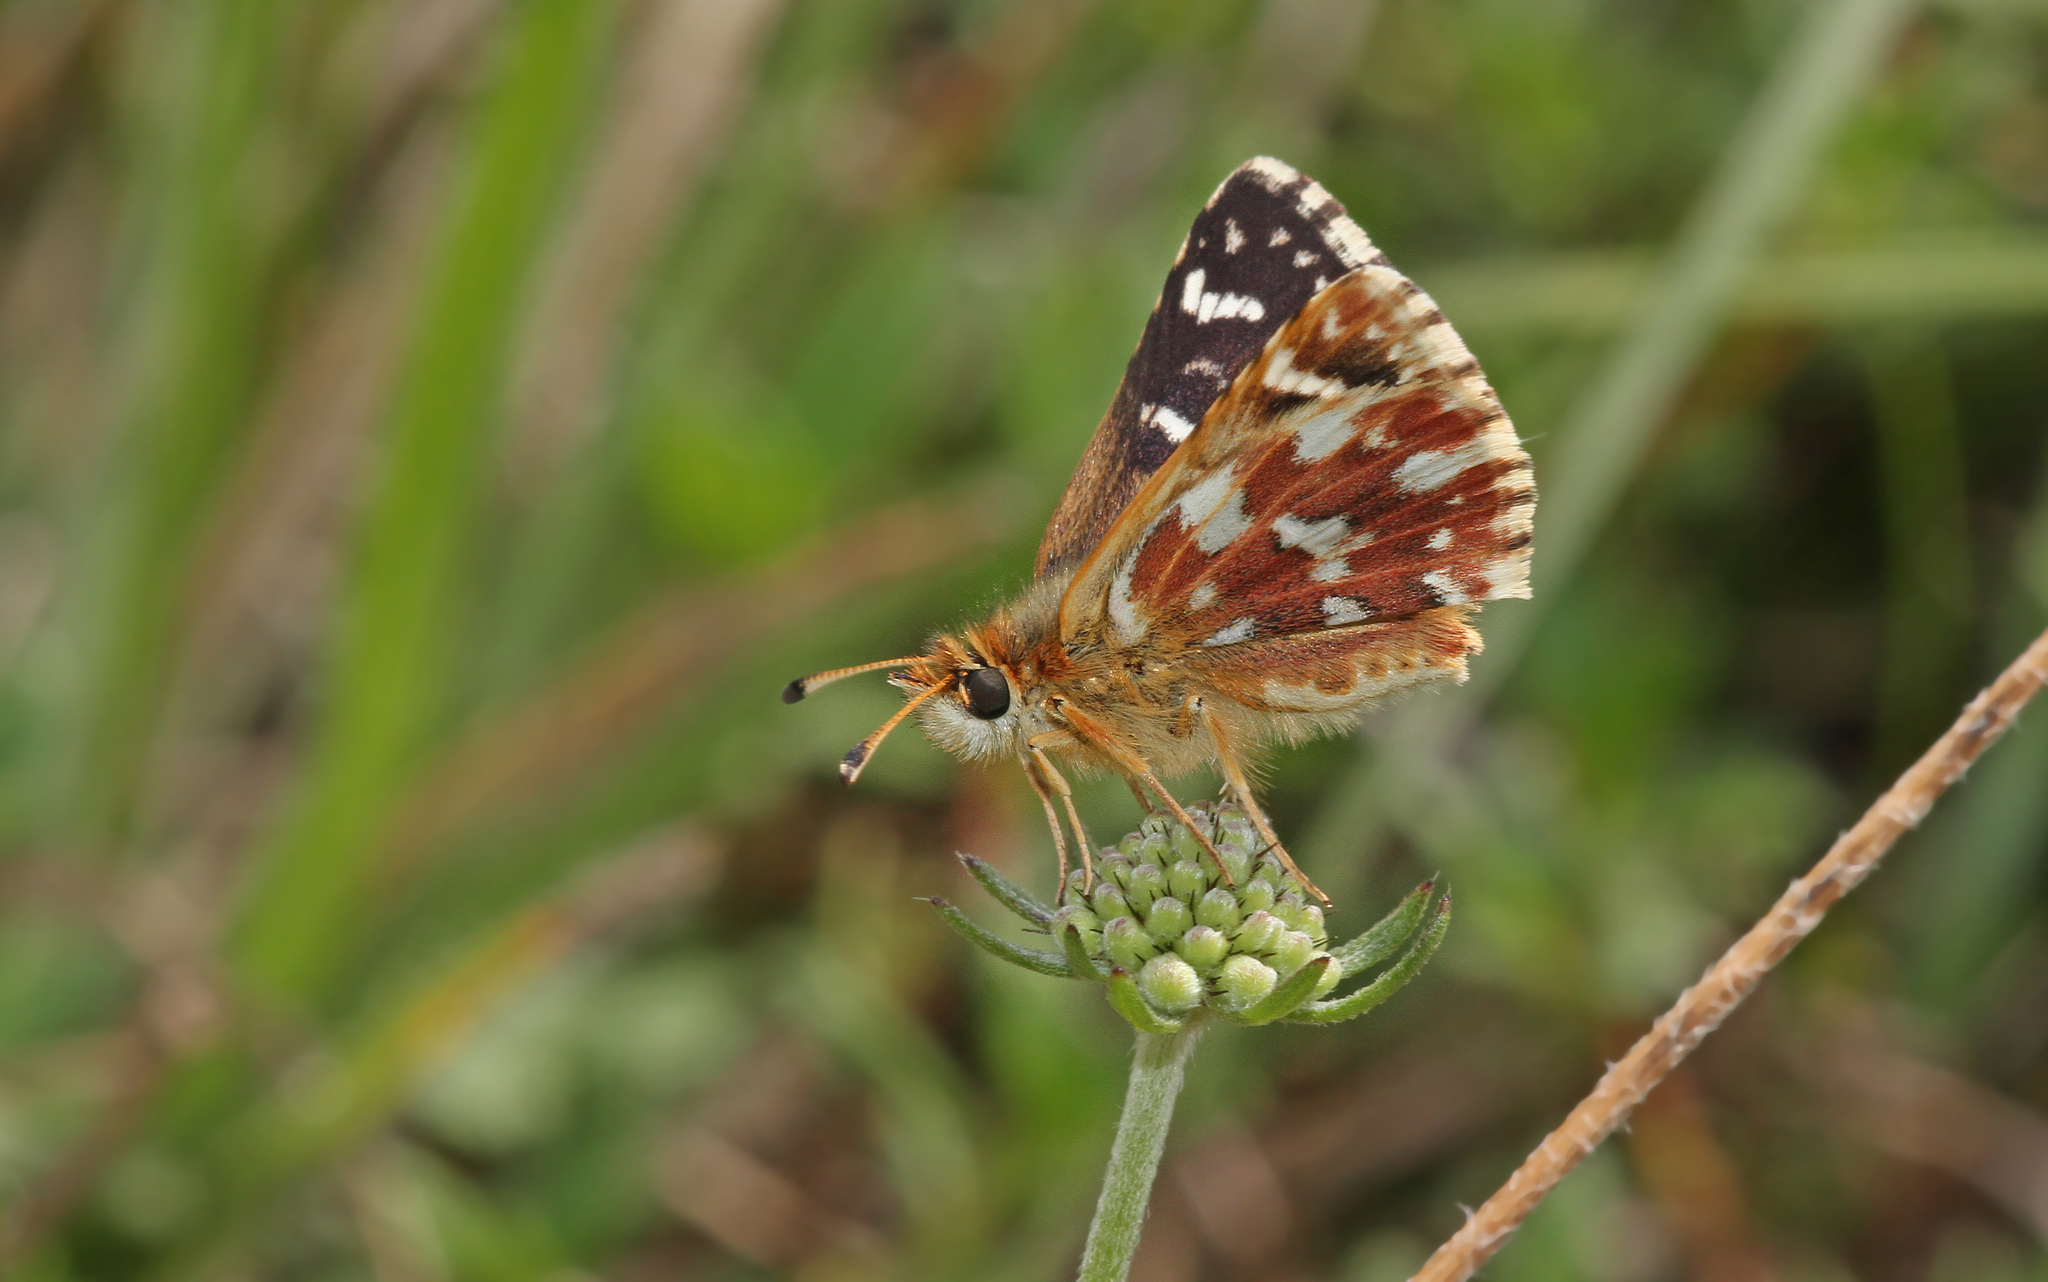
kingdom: Animalia
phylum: Arthropoda
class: Insecta
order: Lepidoptera
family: Hesperiidae
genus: Spialia
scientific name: Spialia sertorius
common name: Red underwing skipper
